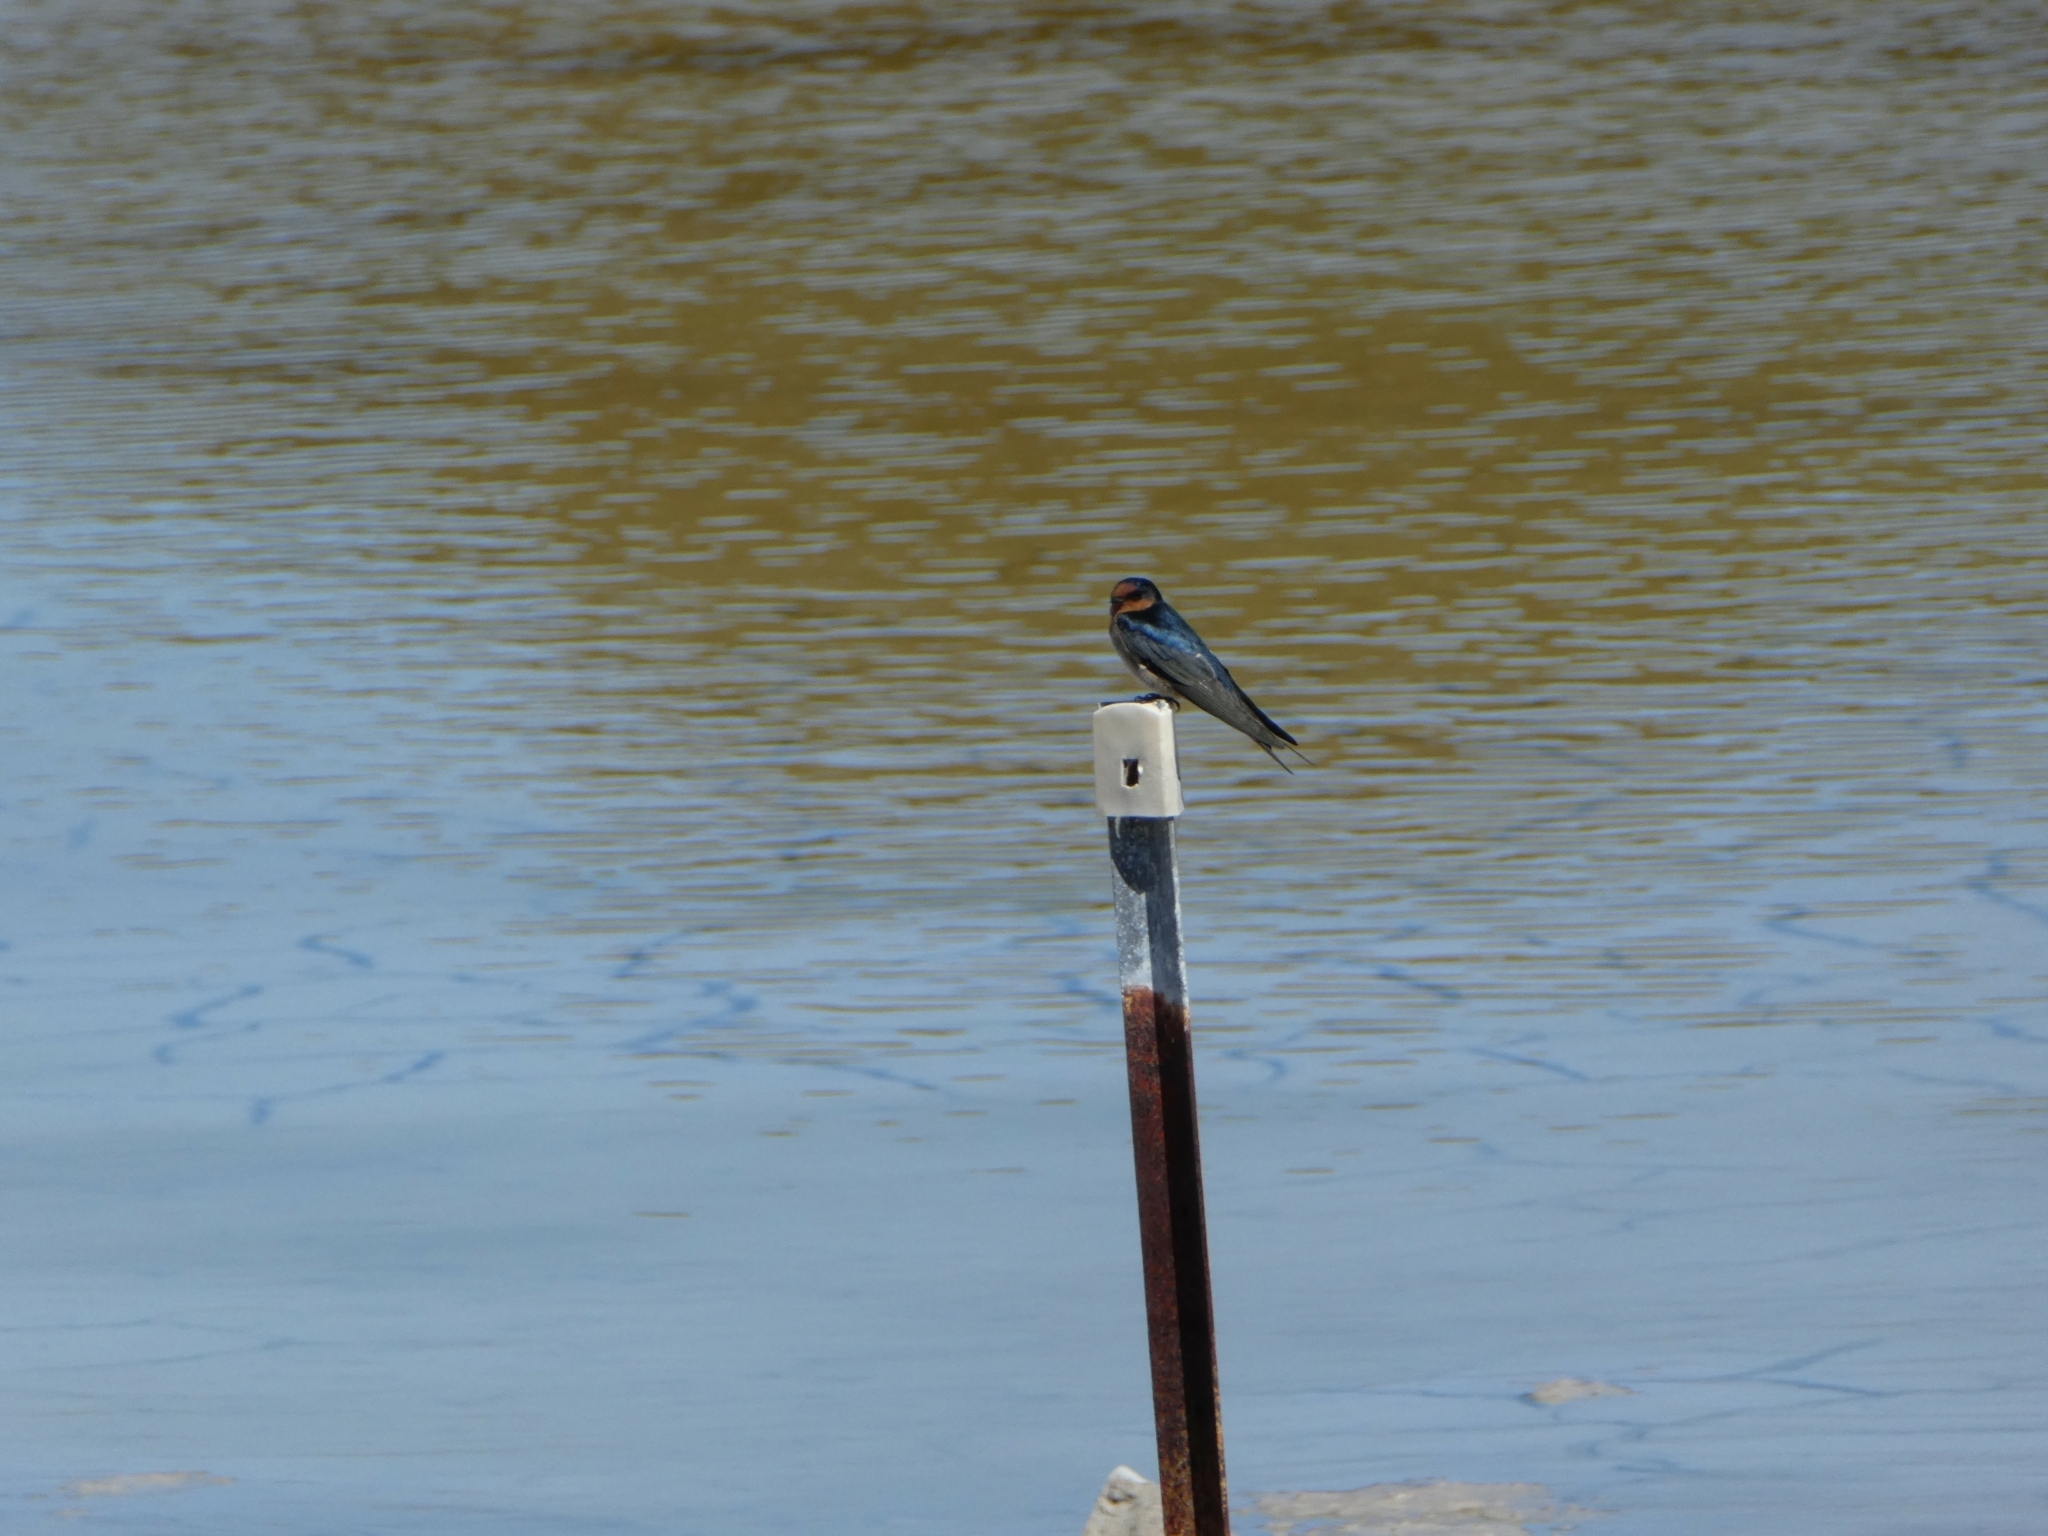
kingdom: Animalia
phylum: Chordata
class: Aves
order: Passeriformes
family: Hirundinidae
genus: Hirundo
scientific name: Hirundo neoxena
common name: Welcome swallow
